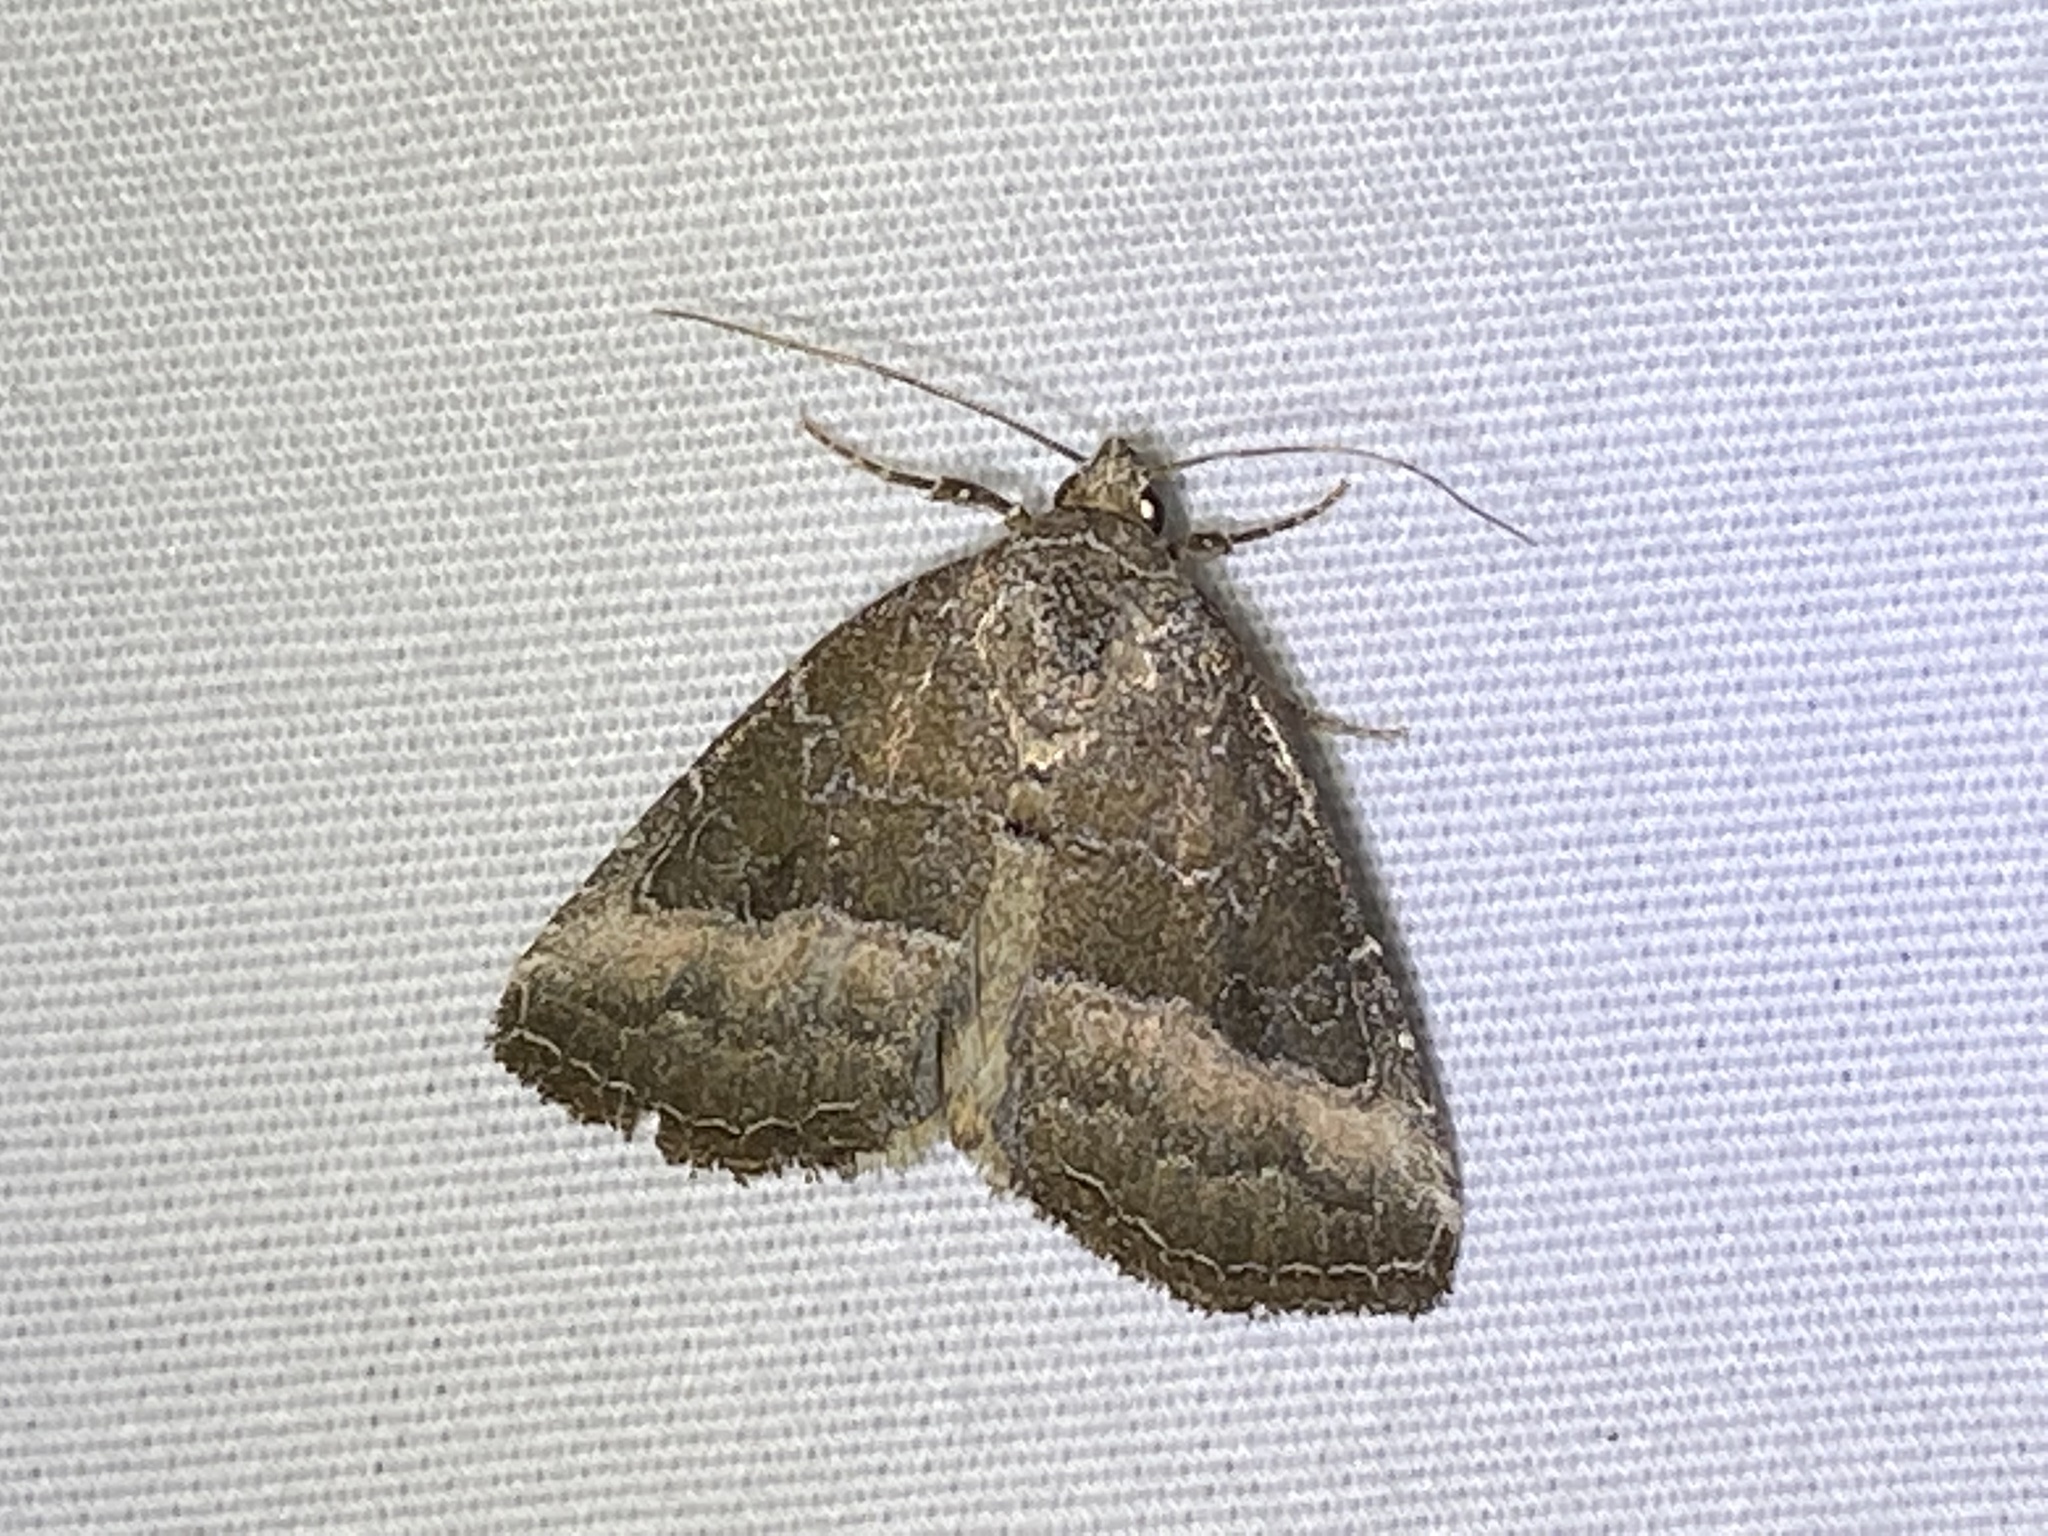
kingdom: Animalia
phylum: Arthropoda
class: Insecta
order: Lepidoptera
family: Noctuidae
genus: Ogdoconta
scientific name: Ogdoconta cinereola
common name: Common pinkband
